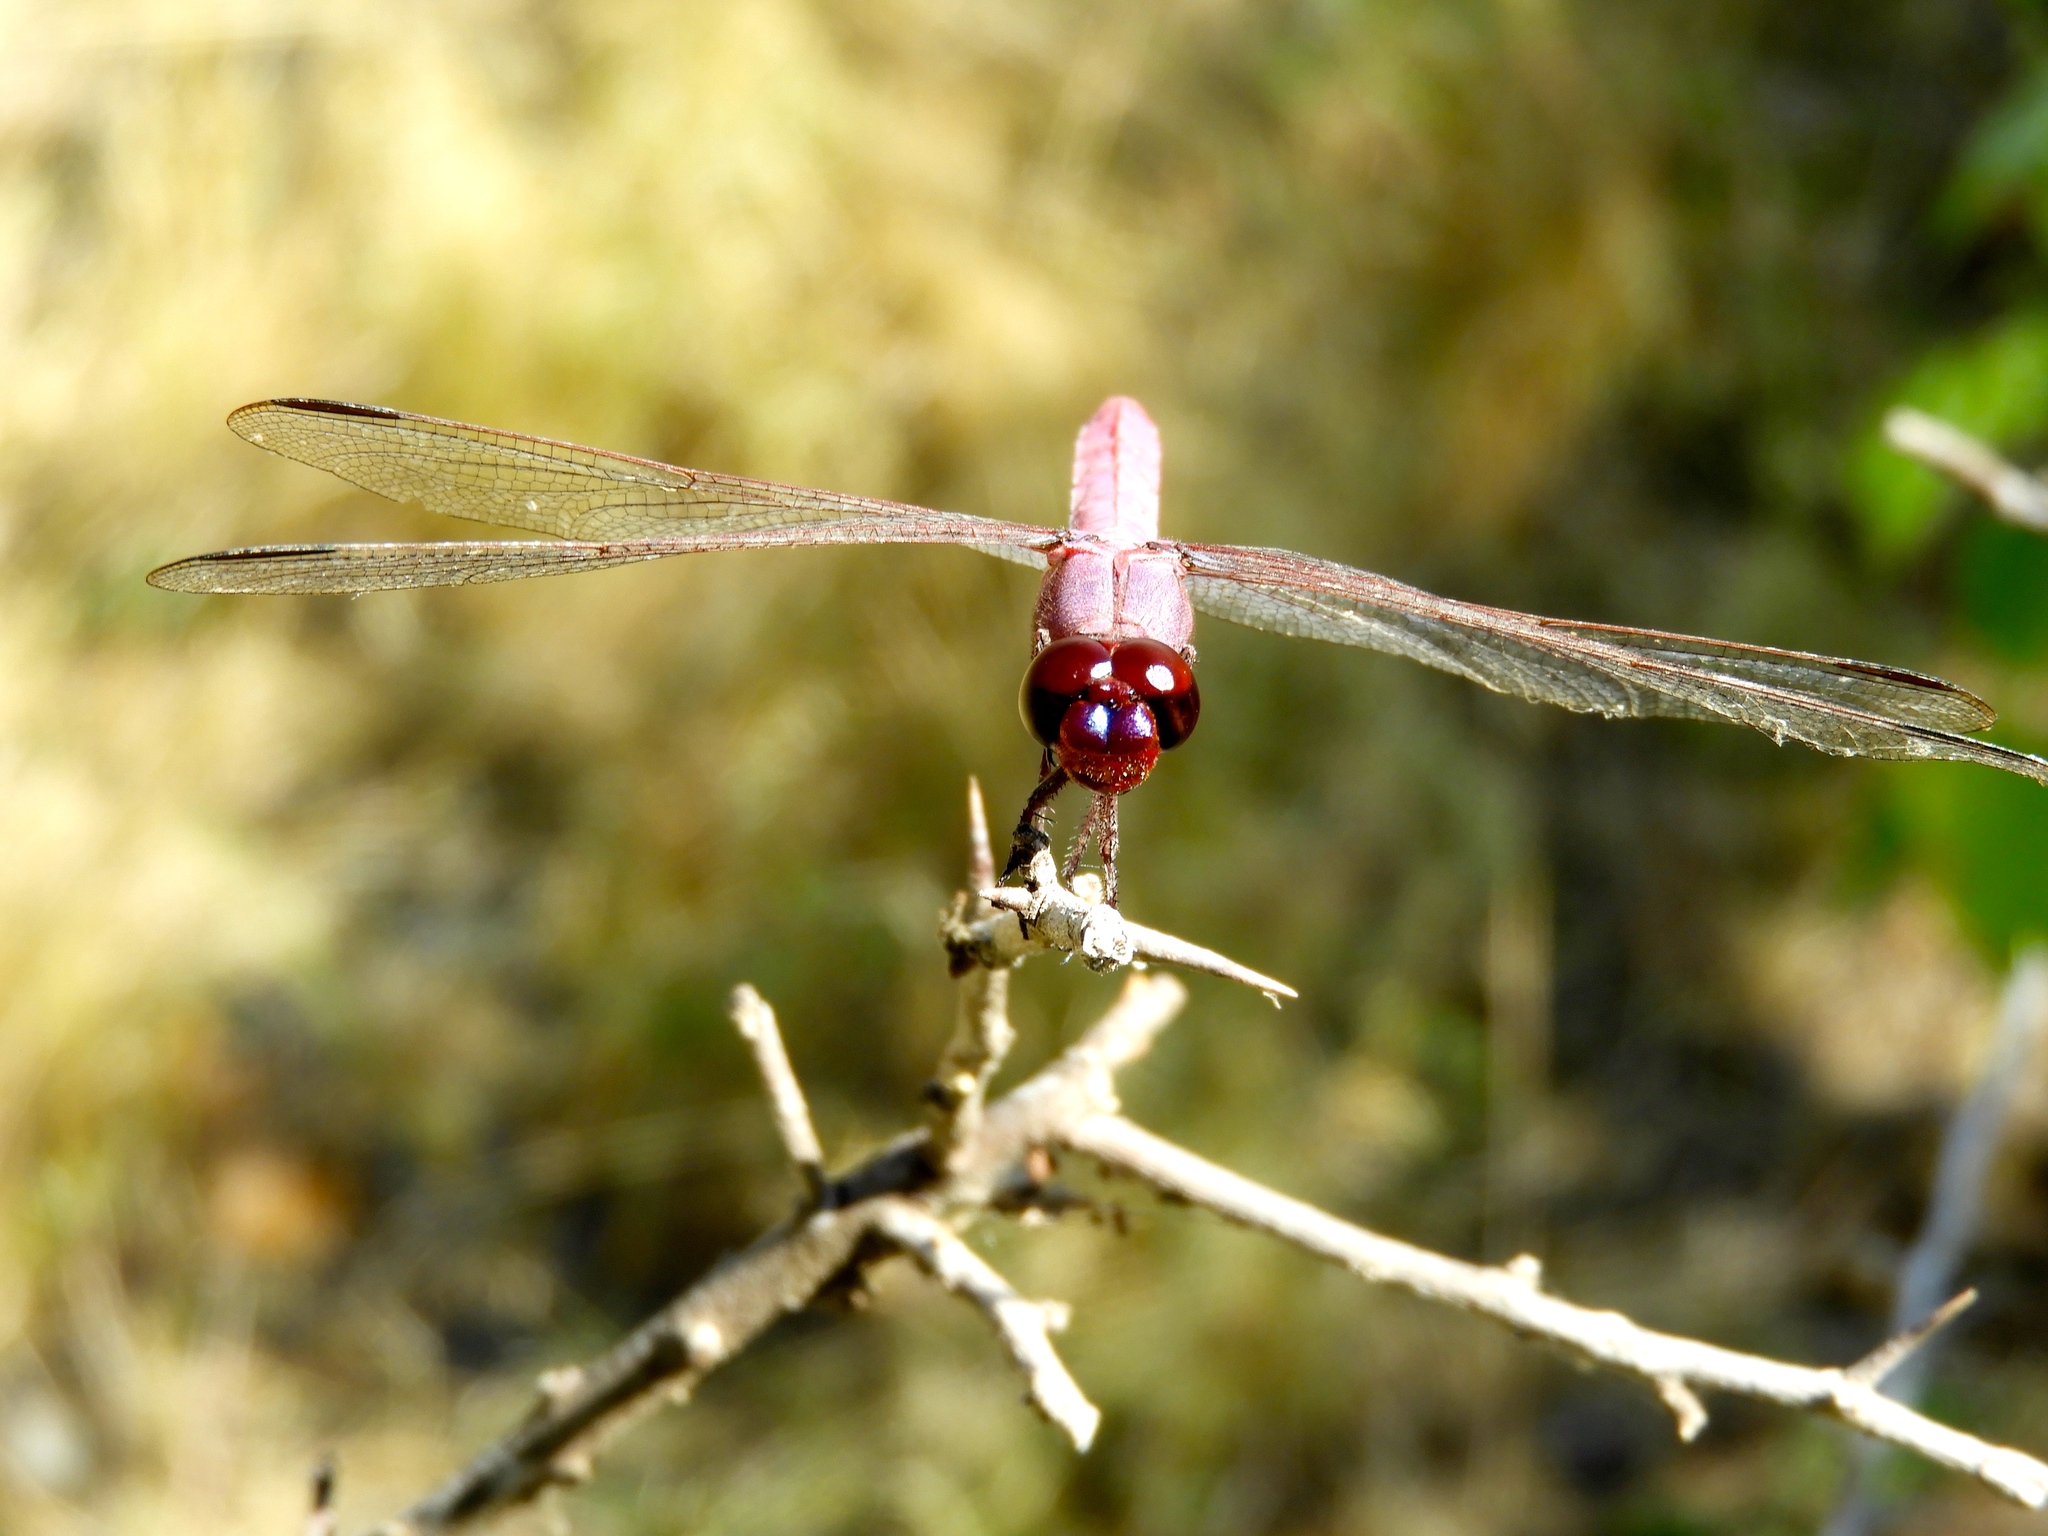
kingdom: Animalia
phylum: Arthropoda
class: Insecta
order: Odonata
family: Libellulidae
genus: Orthemis
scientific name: Orthemis ferruginea
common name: Roseate skimmer
